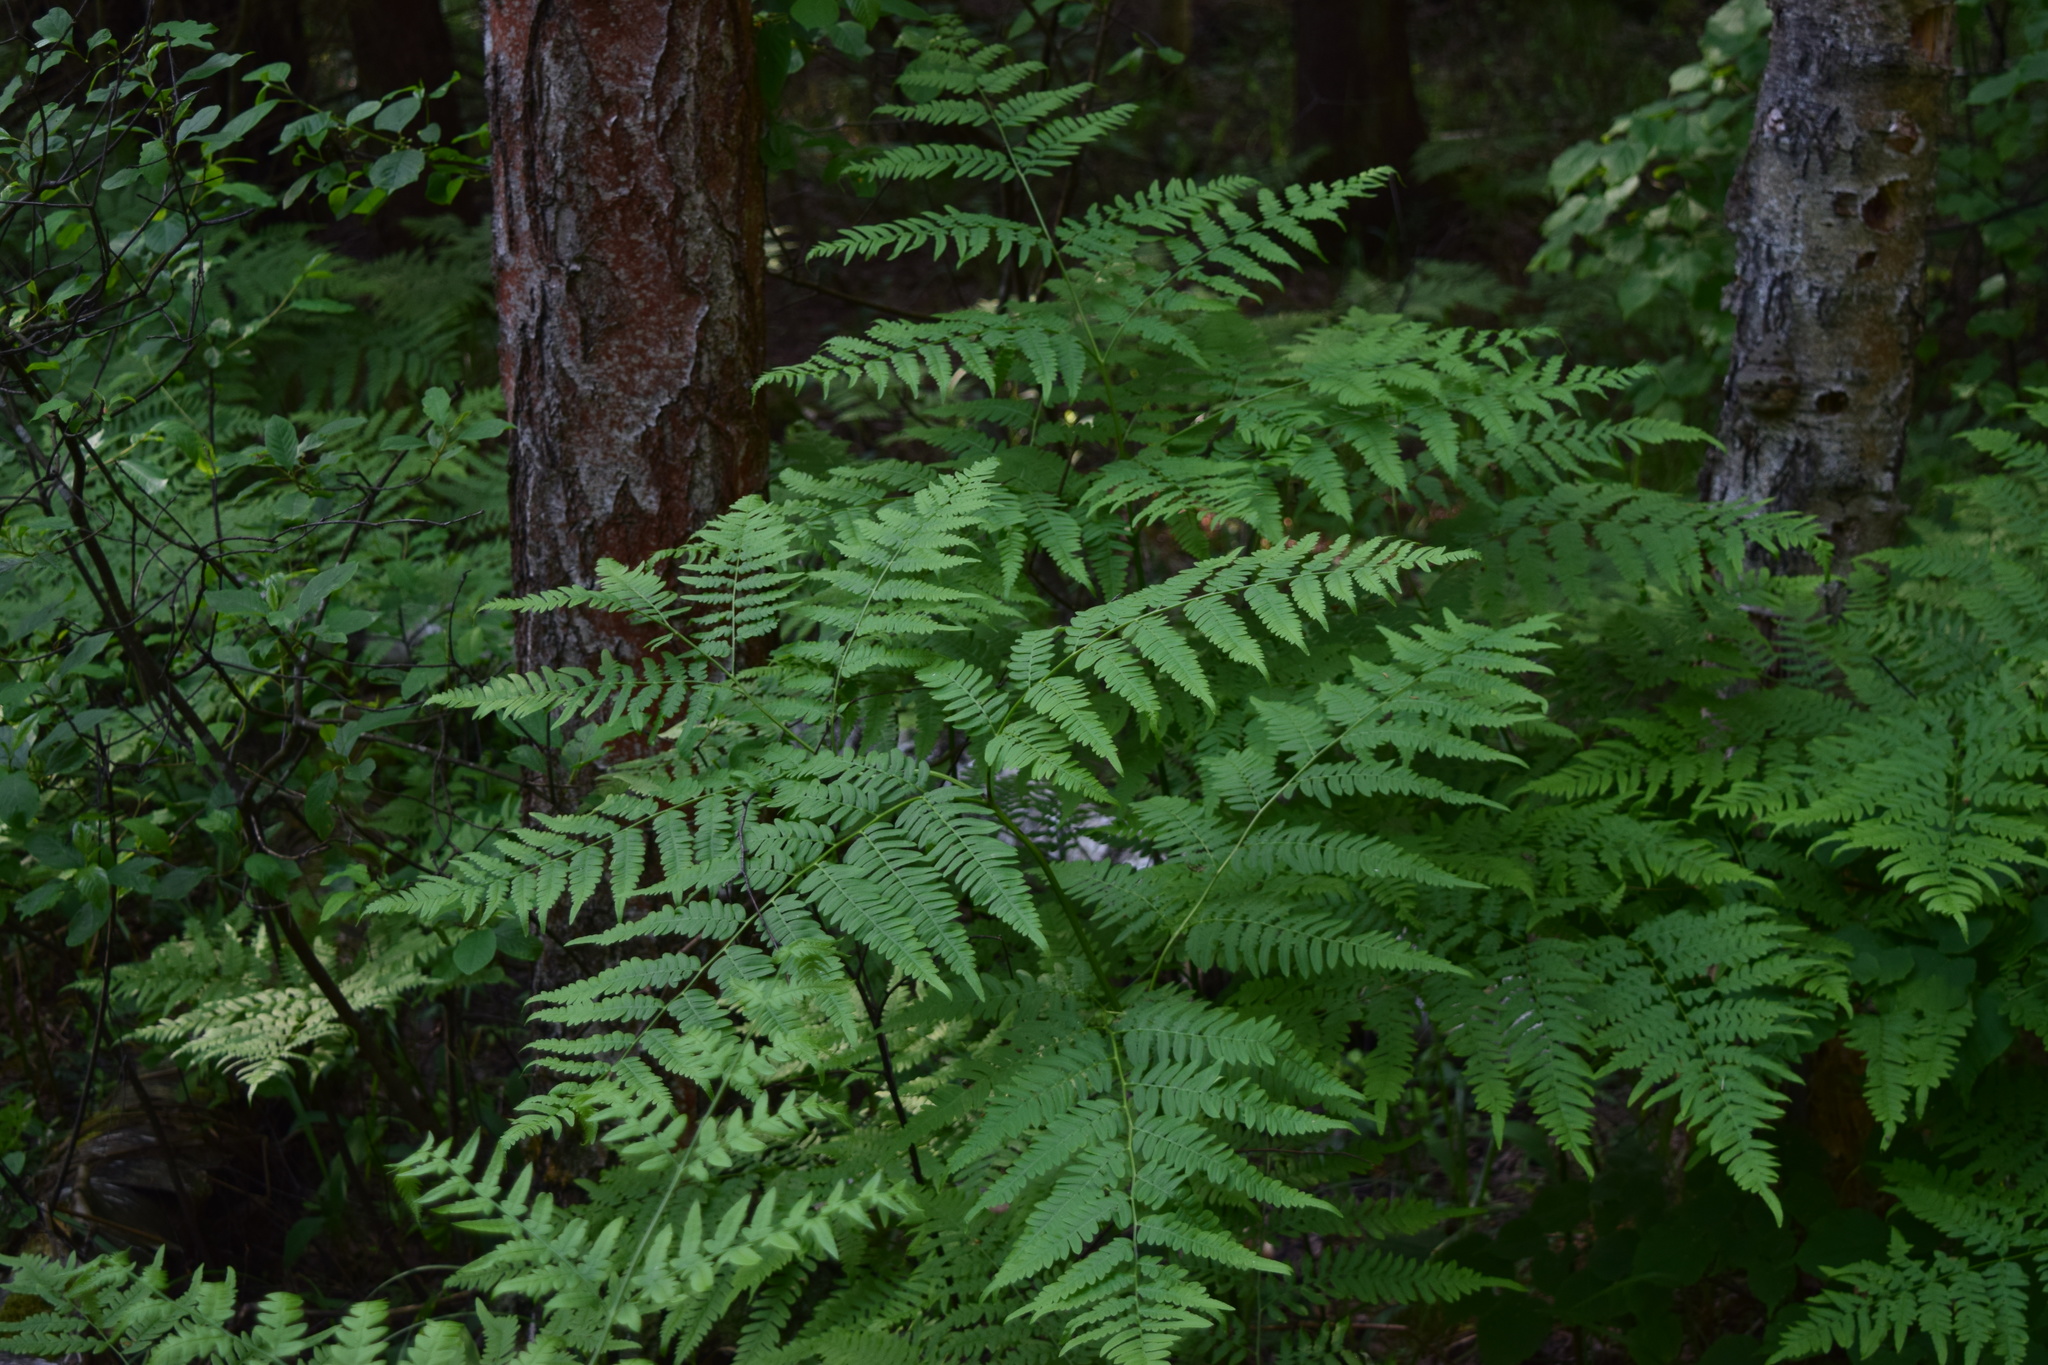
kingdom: Plantae
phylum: Tracheophyta
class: Polypodiopsida
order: Polypodiales
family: Dennstaedtiaceae
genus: Pteridium
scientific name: Pteridium aquilinum
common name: Bracken
